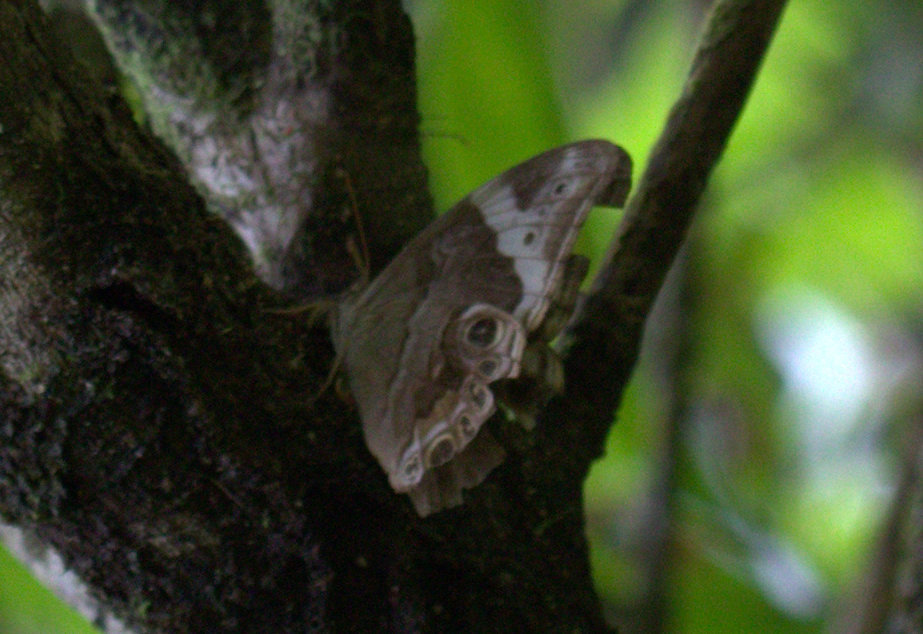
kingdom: Animalia
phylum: Arthropoda
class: Insecta
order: Lepidoptera
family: Nymphalidae
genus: Lethe
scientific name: Lethe europa
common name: Bamboo treebrown
